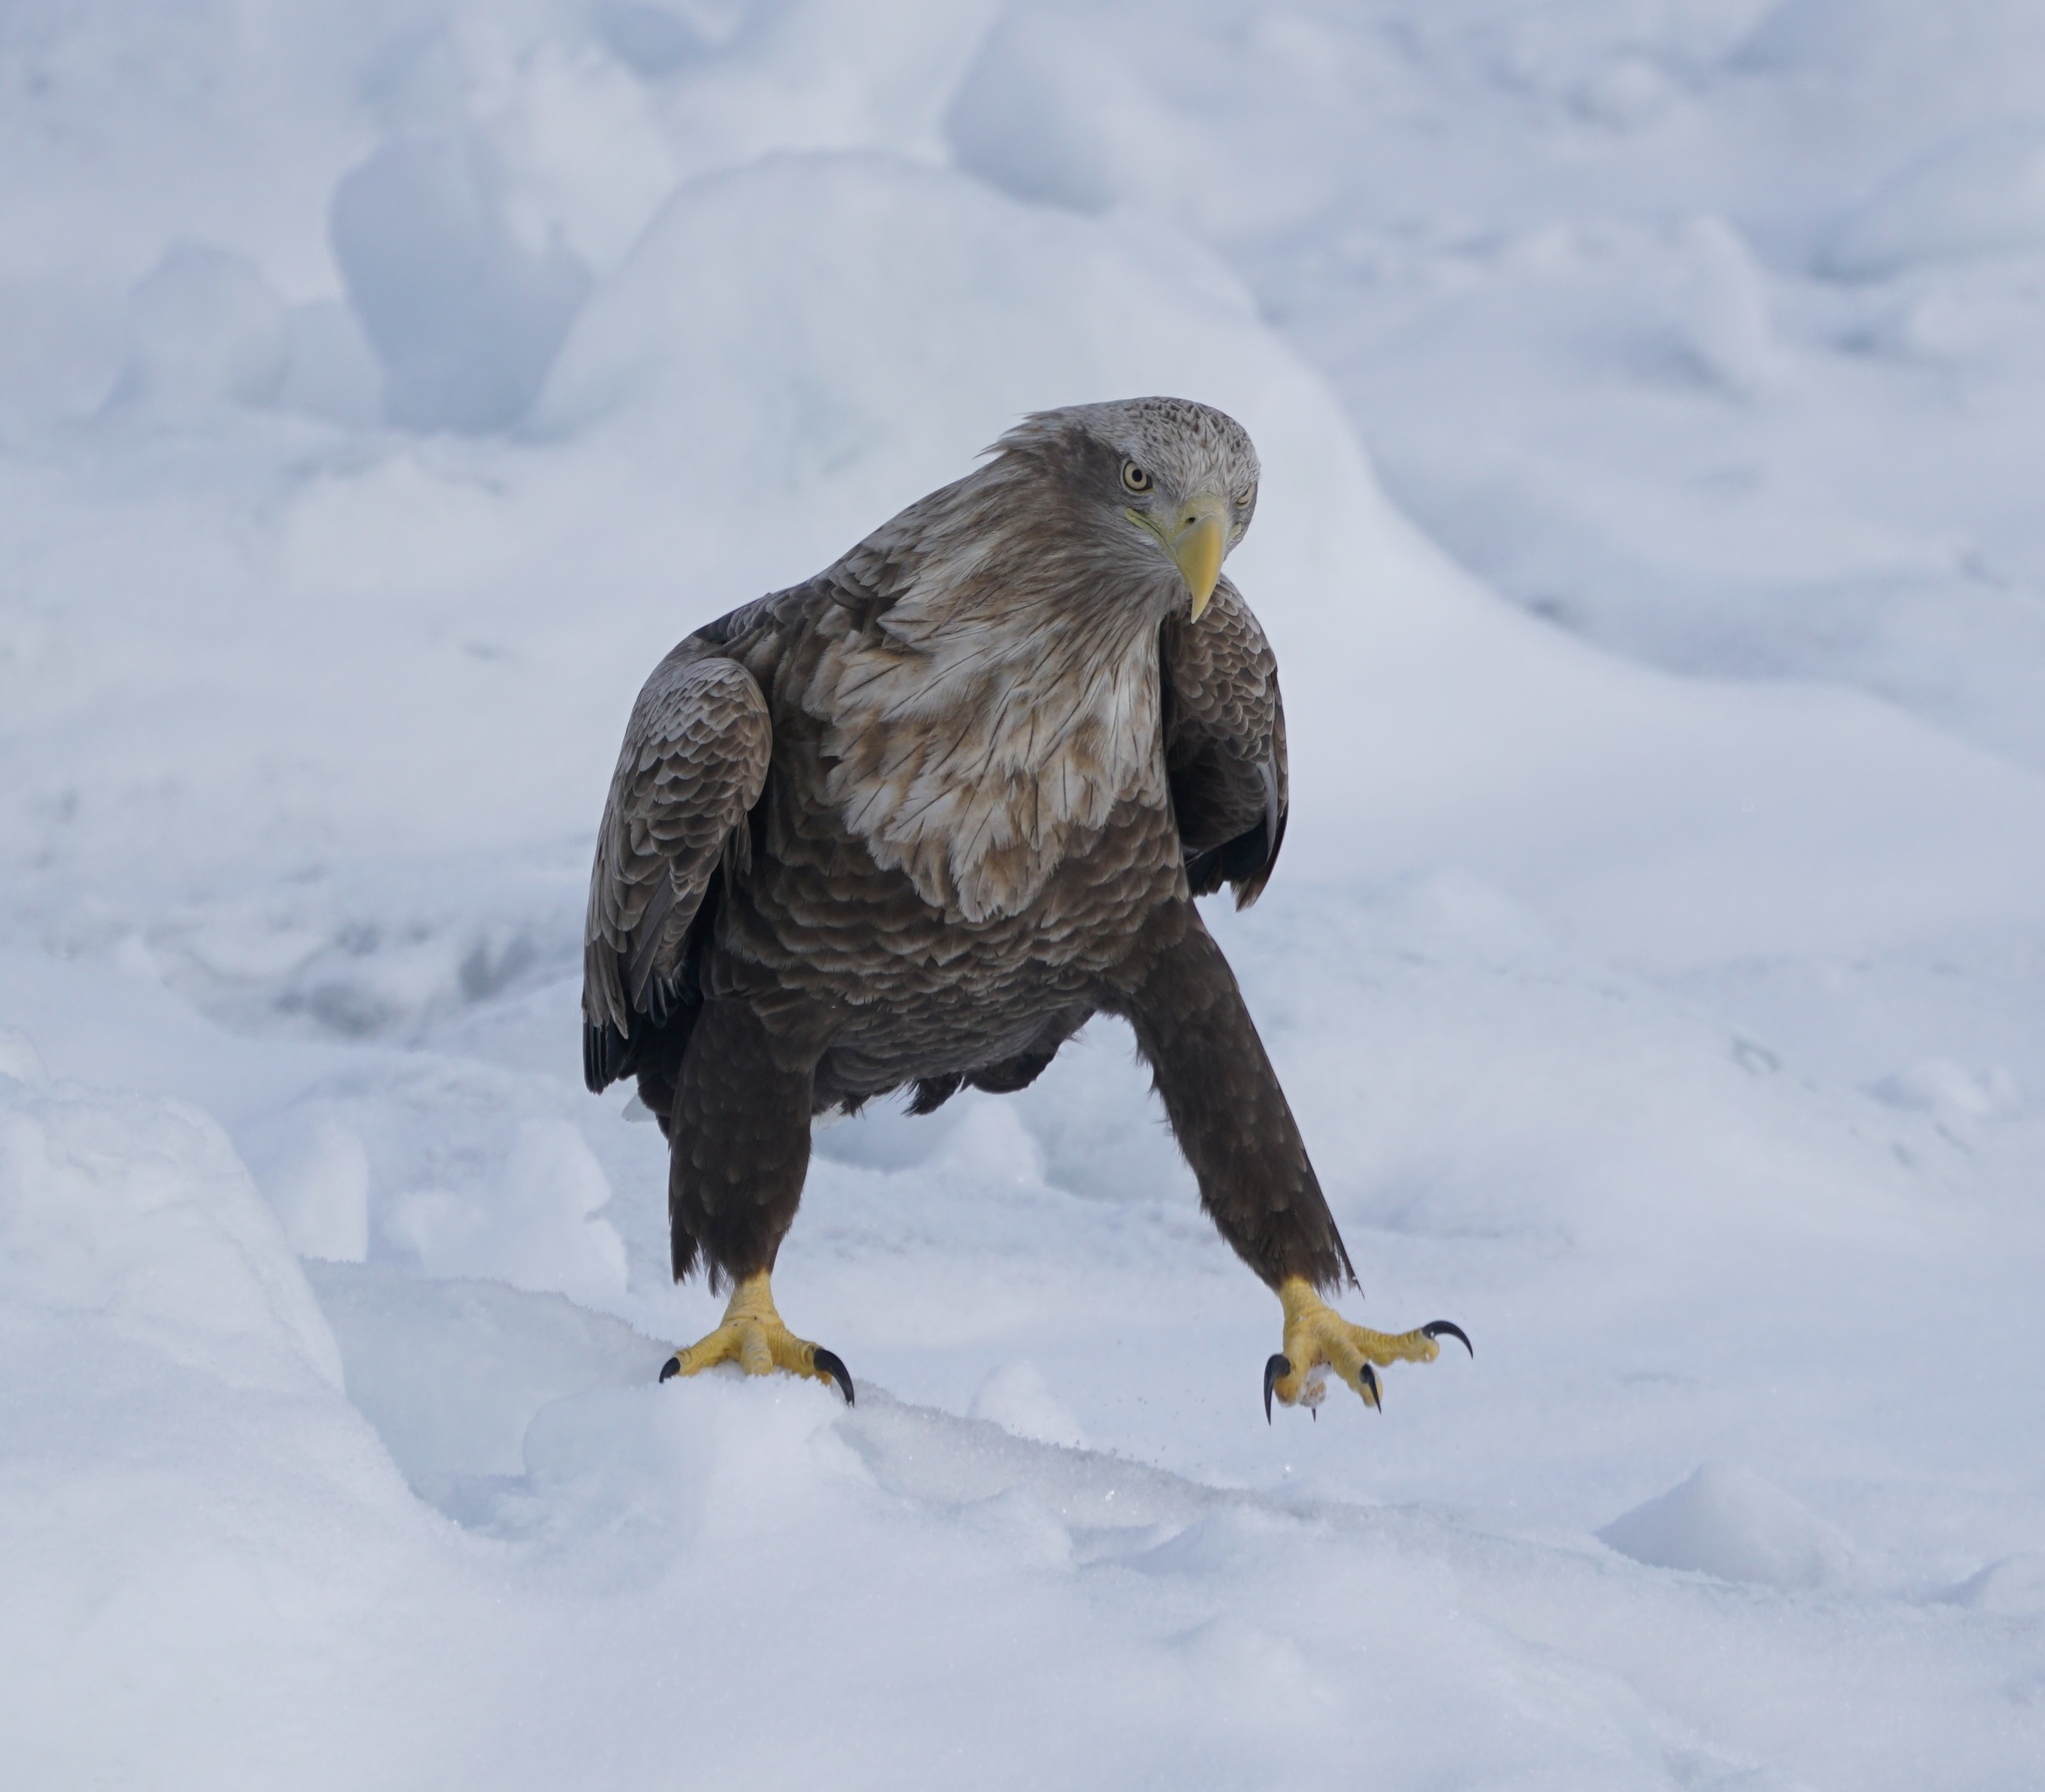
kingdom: Animalia
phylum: Chordata
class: Aves
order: Accipitriformes
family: Accipitridae
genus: Haliaeetus
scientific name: Haliaeetus albicilla
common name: White-tailed eagle
